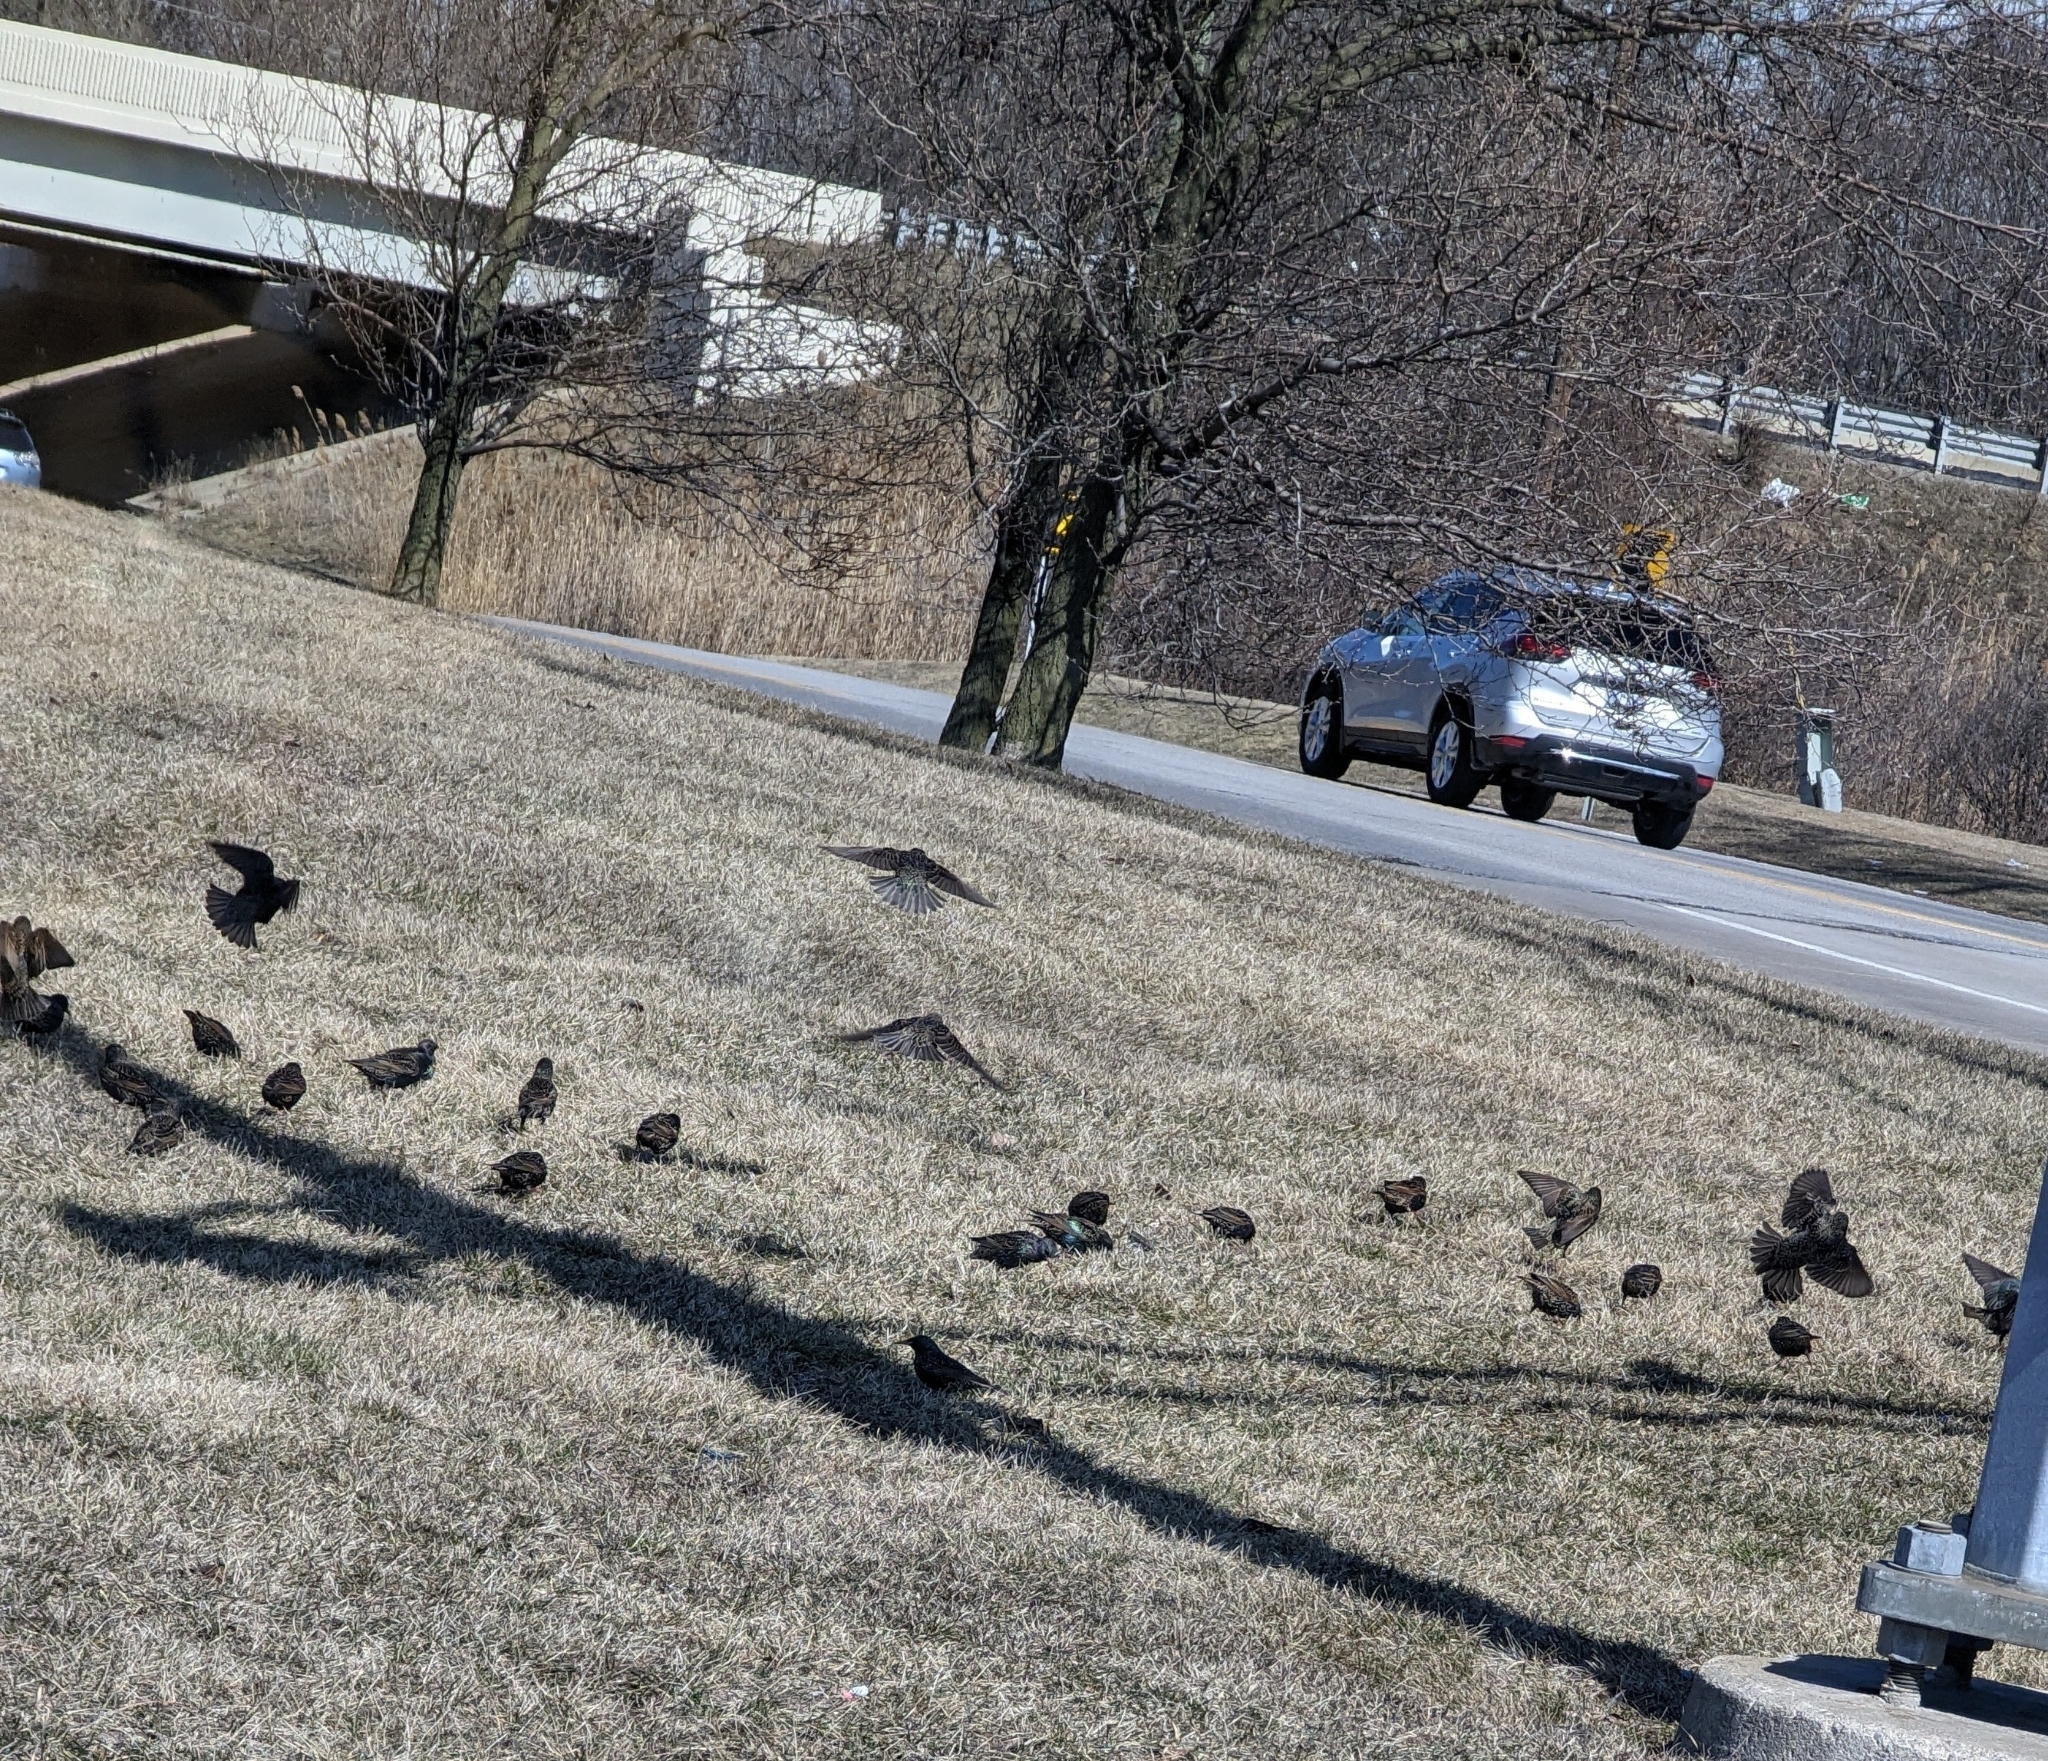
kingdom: Animalia
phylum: Chordata
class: Aves
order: Passeriformes
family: Sturnidae
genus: Sturnus
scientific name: Sturnus vulgaris
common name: Common starling
